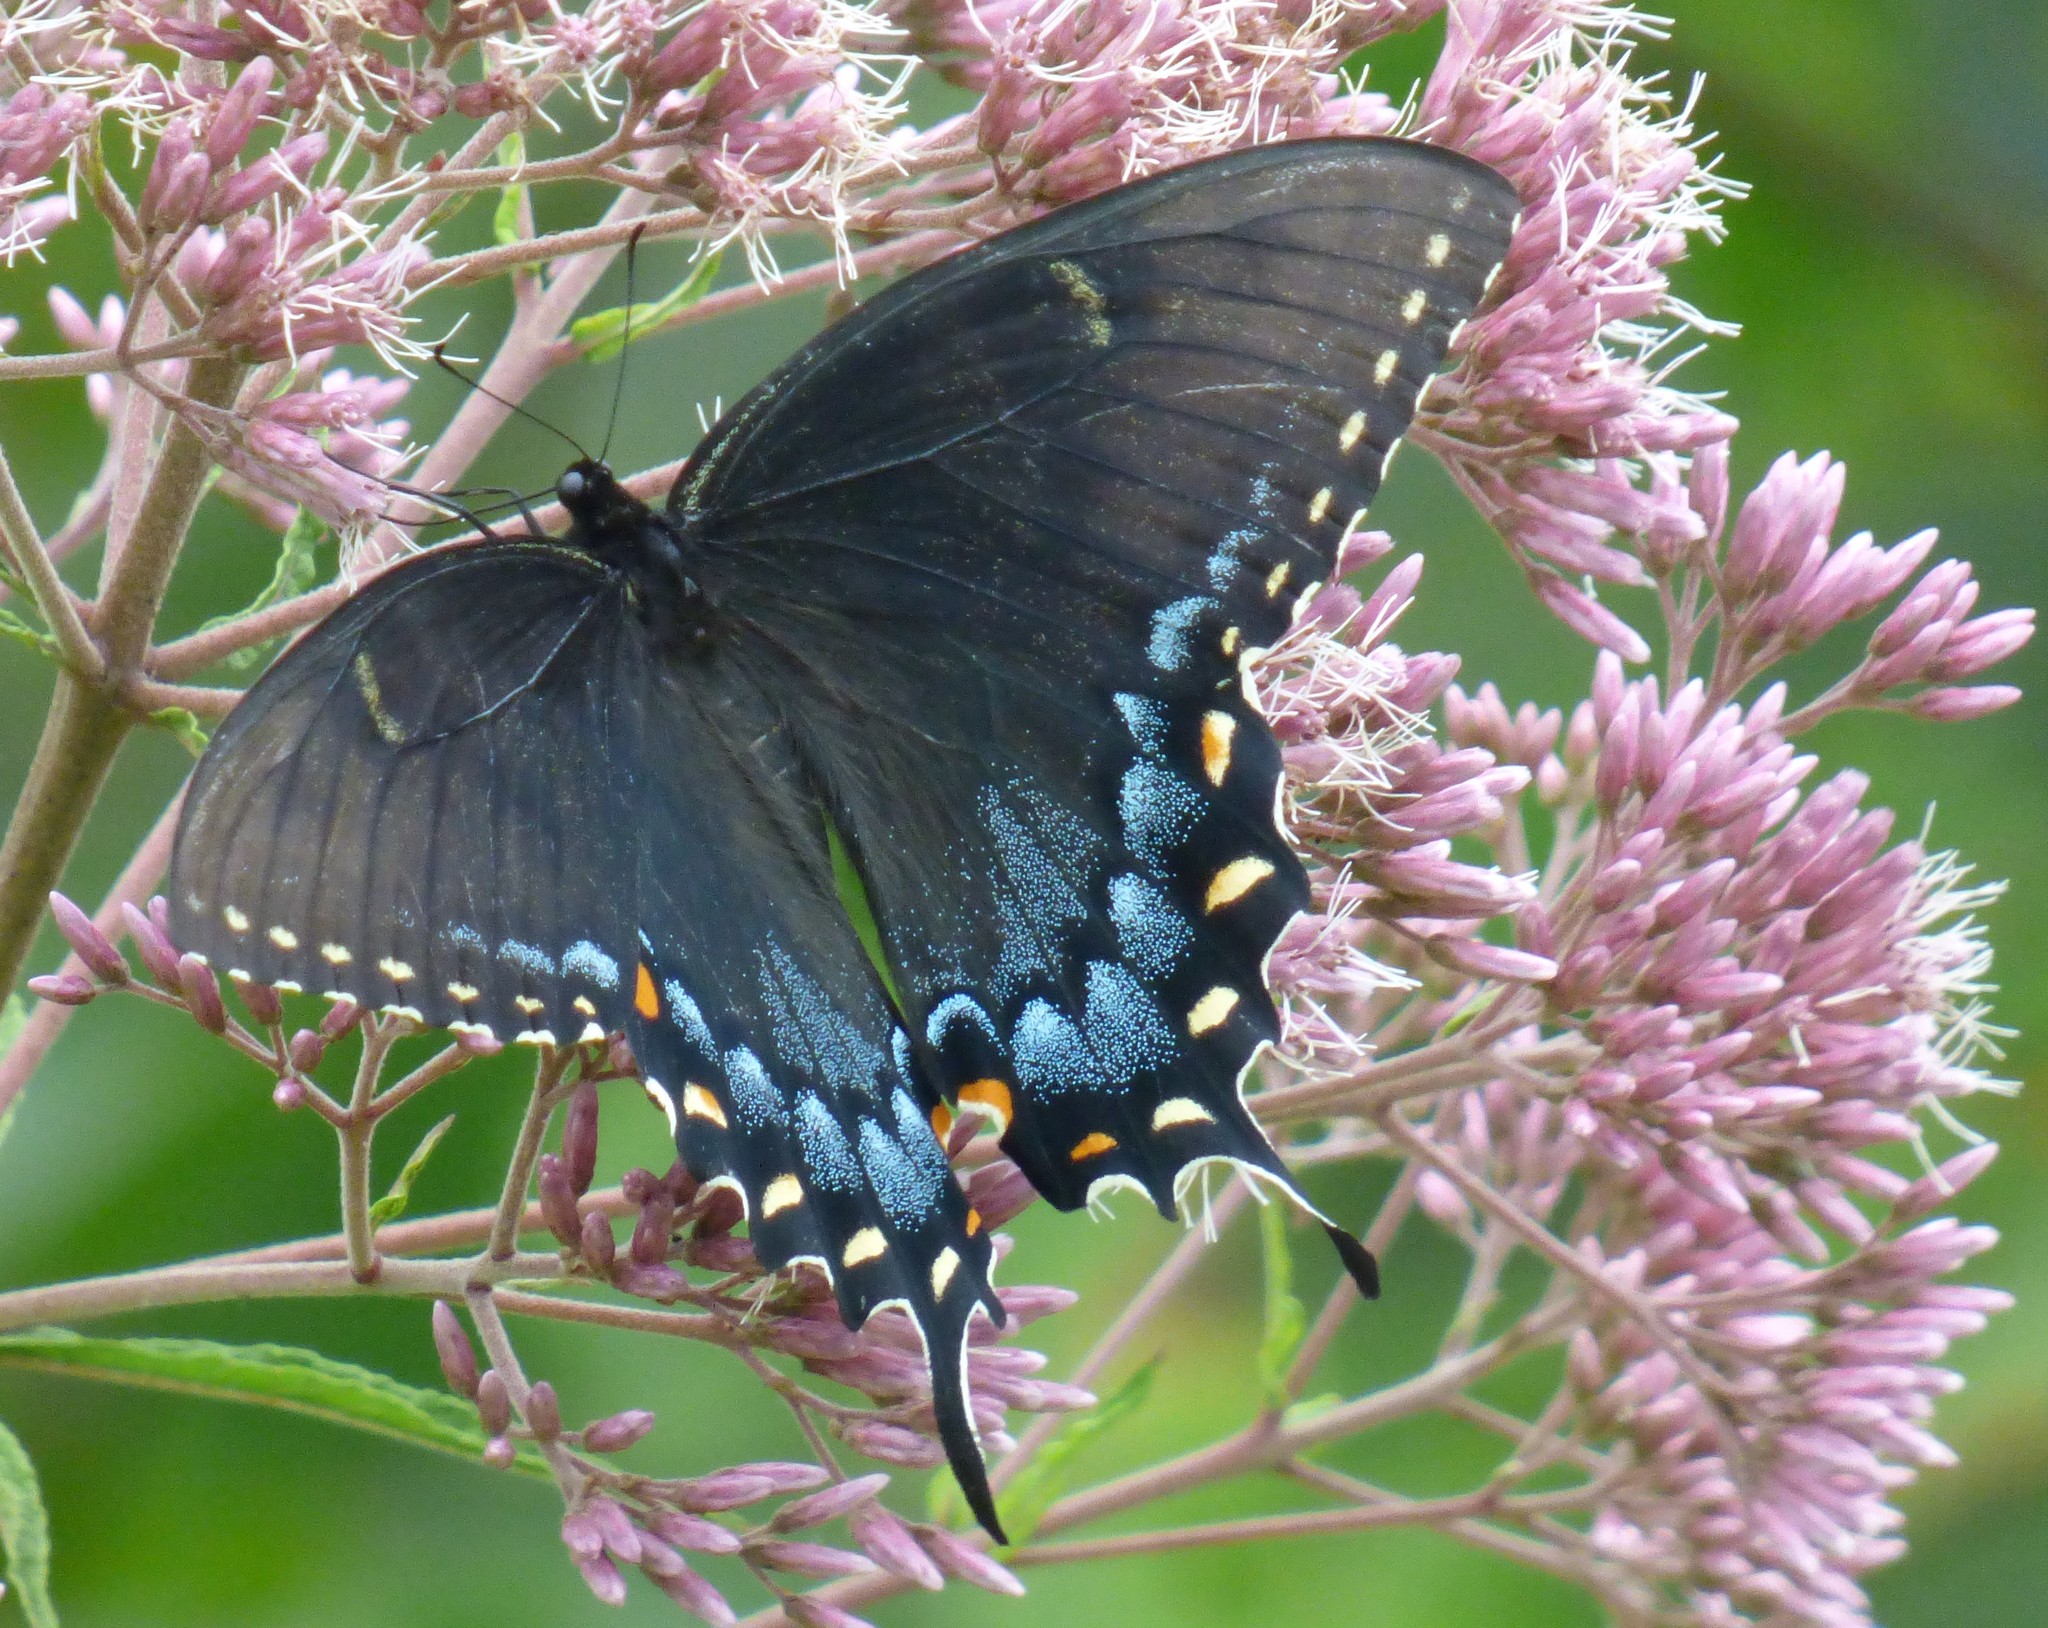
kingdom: Animalia
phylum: Arthropoda
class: Insecta
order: Lepidoptera
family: Papilionidae
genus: Papilio
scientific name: Papilio glaucus
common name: Tiger swallowtail
